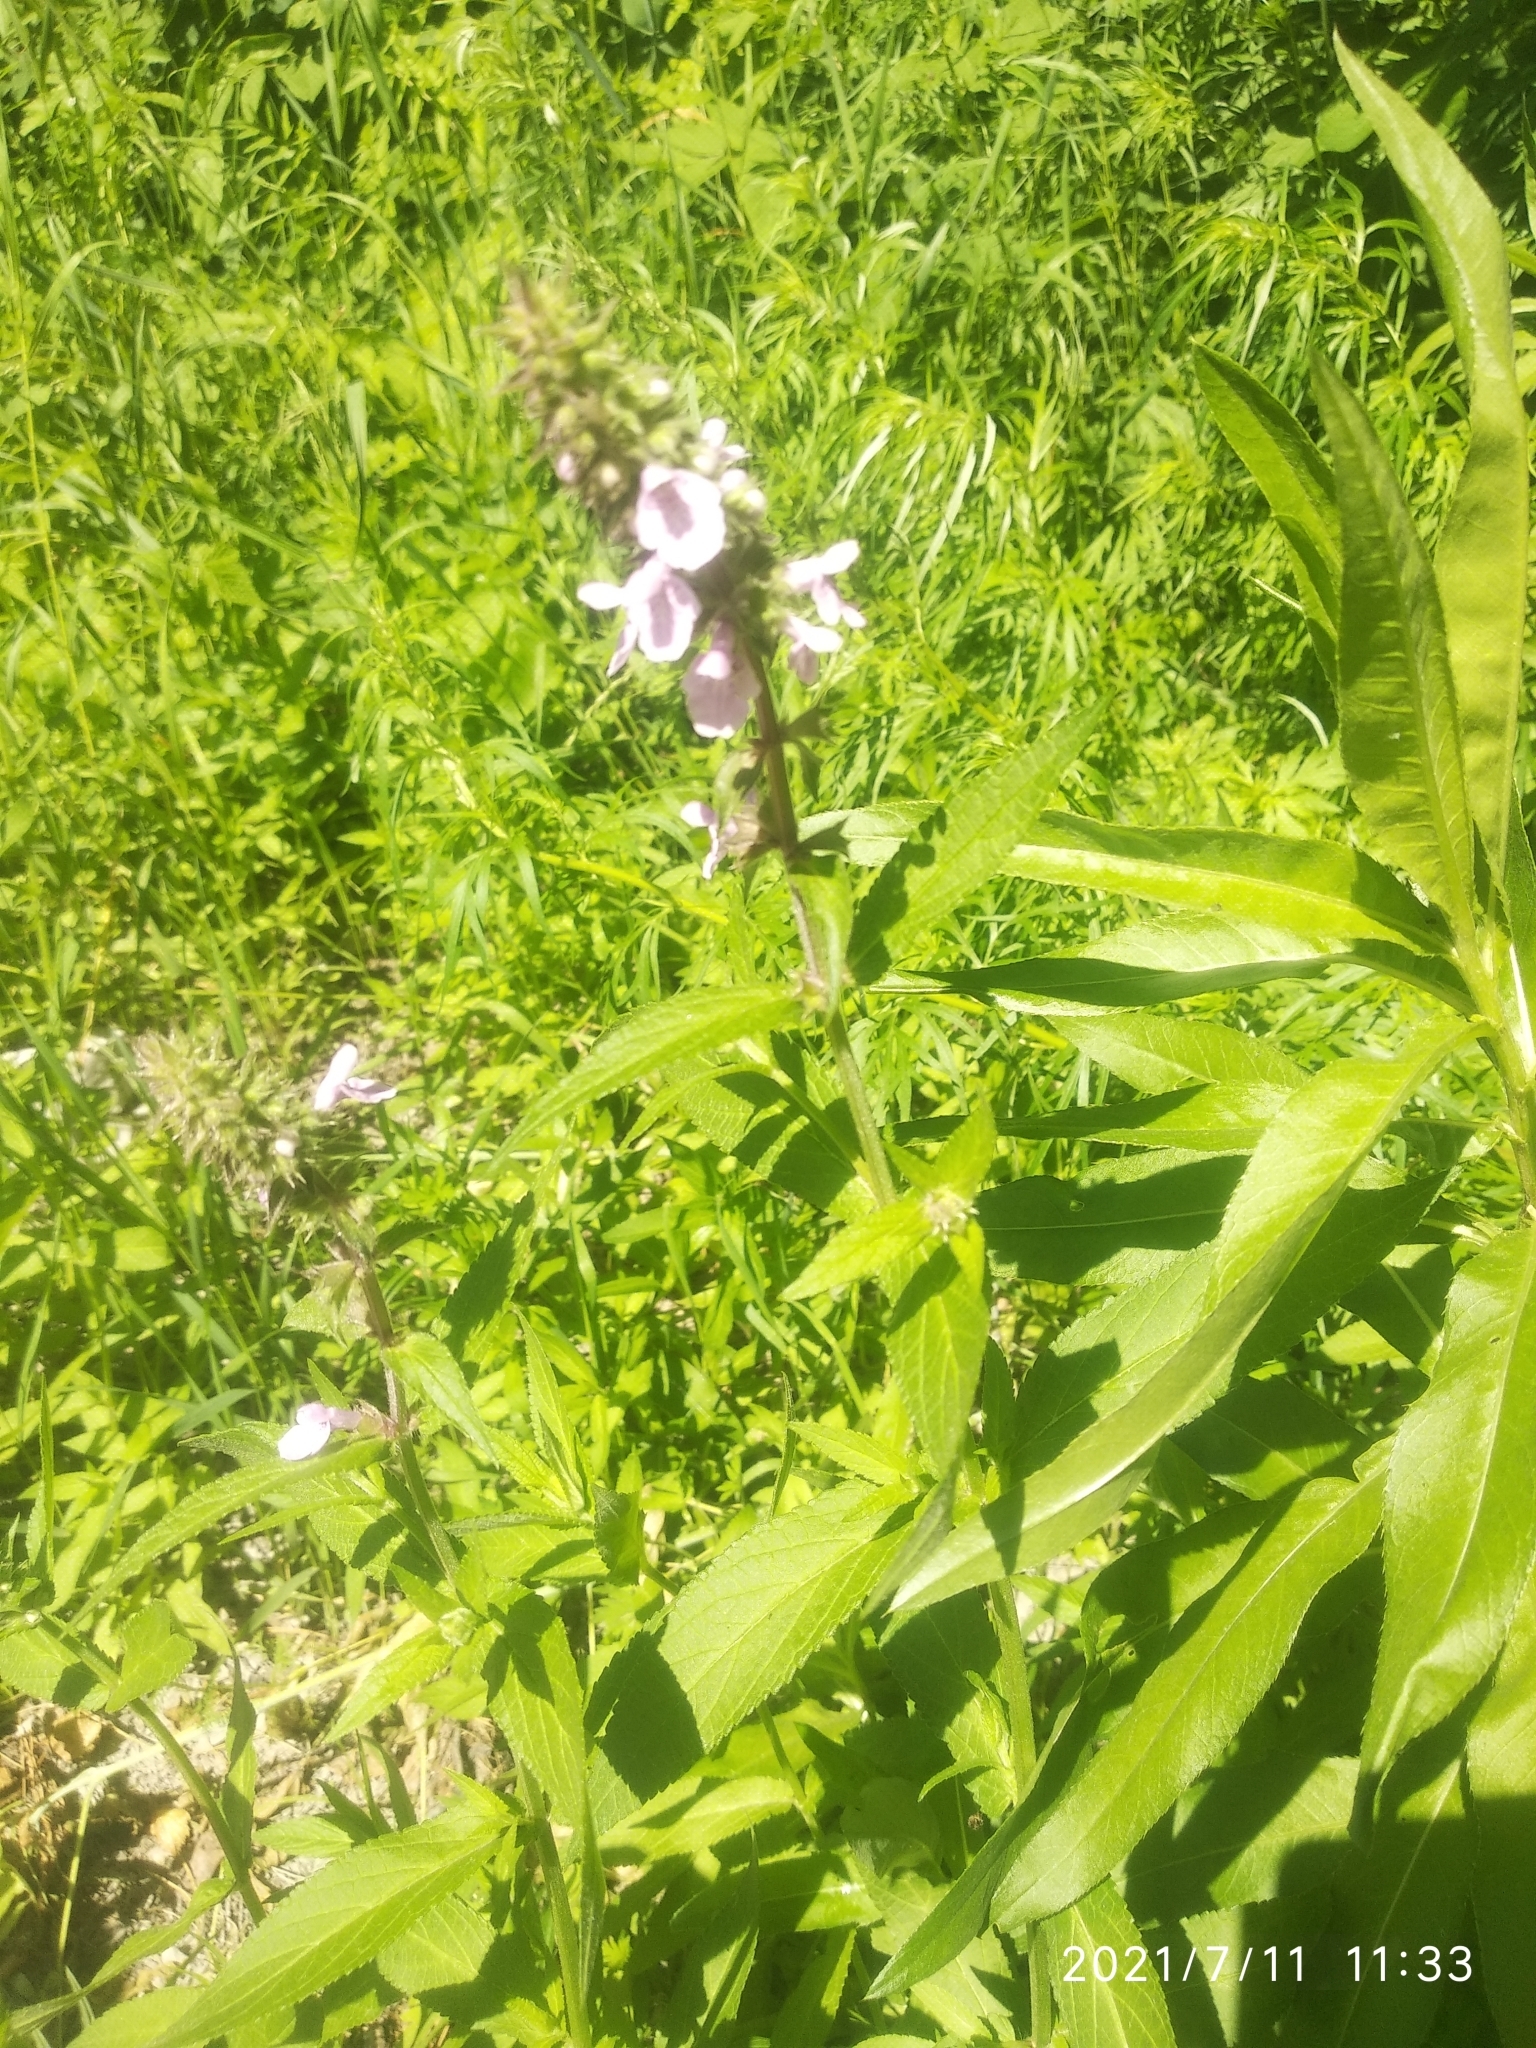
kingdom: Plantae
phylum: Tracheophyta
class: Magnoliopsida
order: Lamiales
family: Lamiaceae
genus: Stachys
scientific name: Stachys palustris
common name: Marsh woundwort
